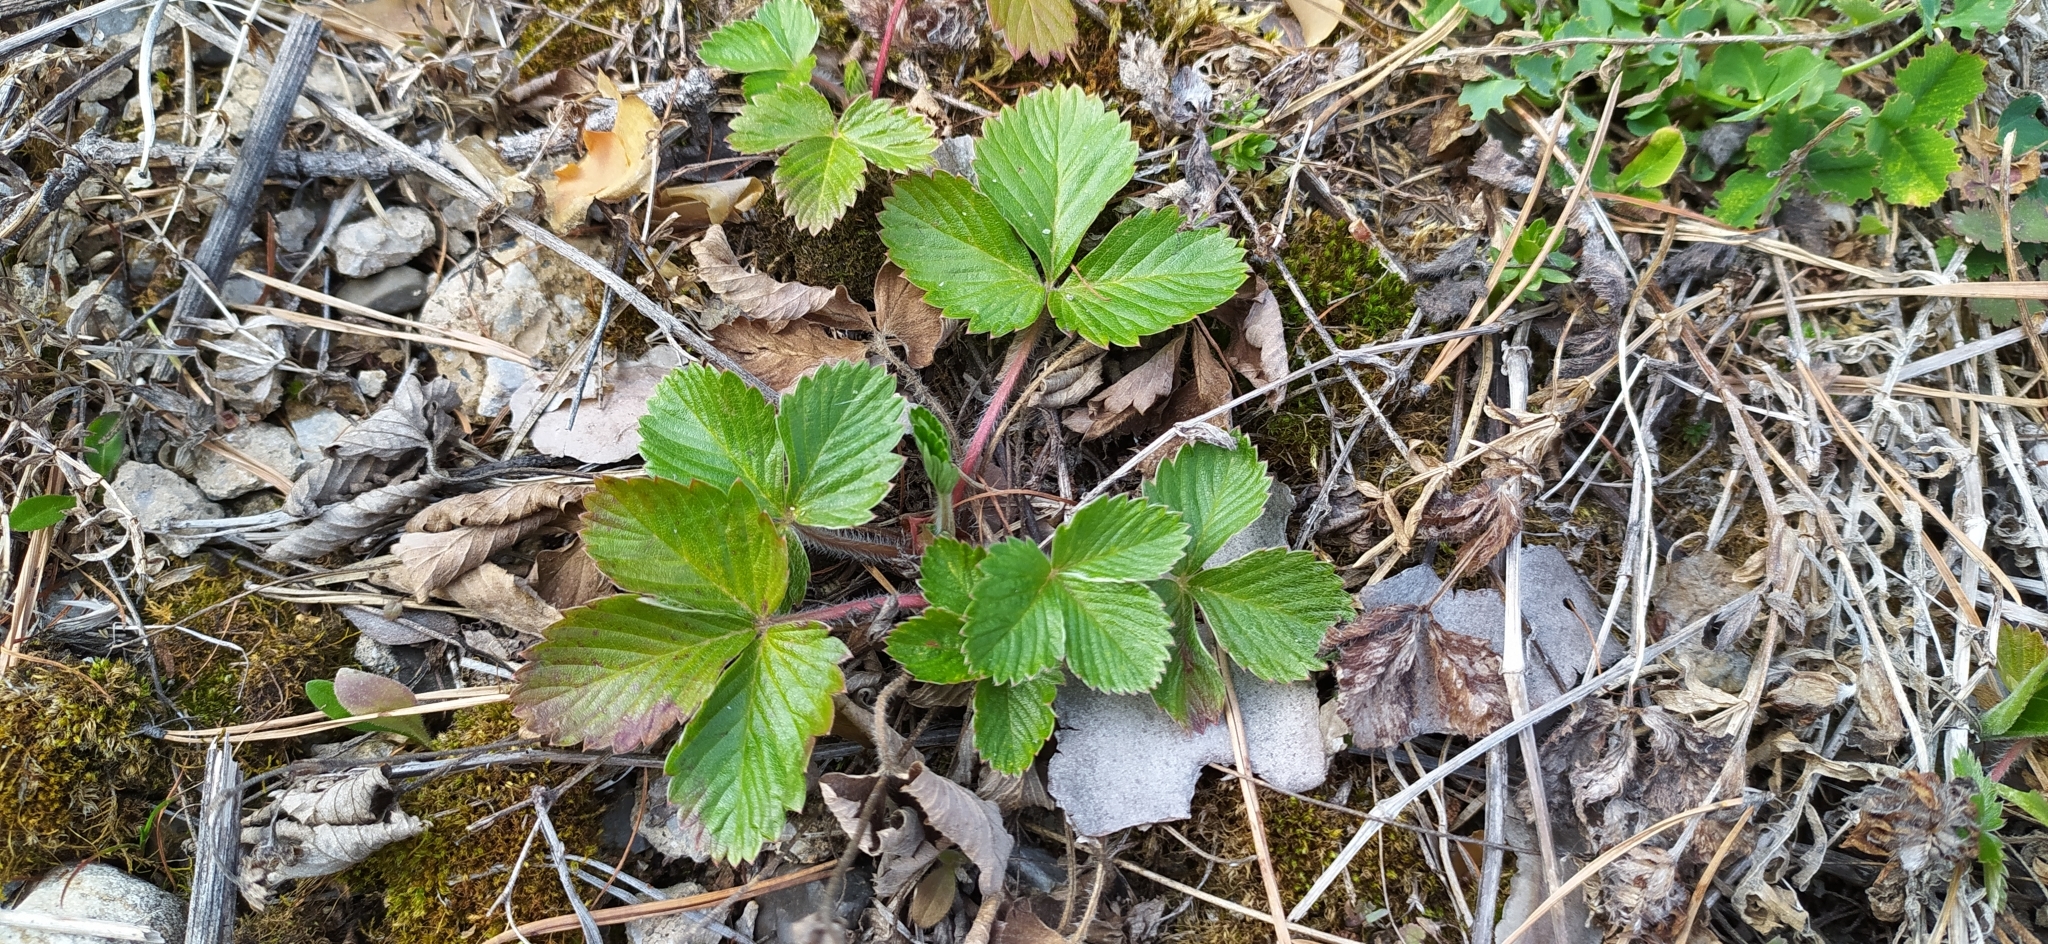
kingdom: Plantae
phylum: Tracheophyta
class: Magnoliopsida
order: Rosales
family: Rosaceae
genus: Fragaria
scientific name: Fragaria vesca
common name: Wild strawberry
